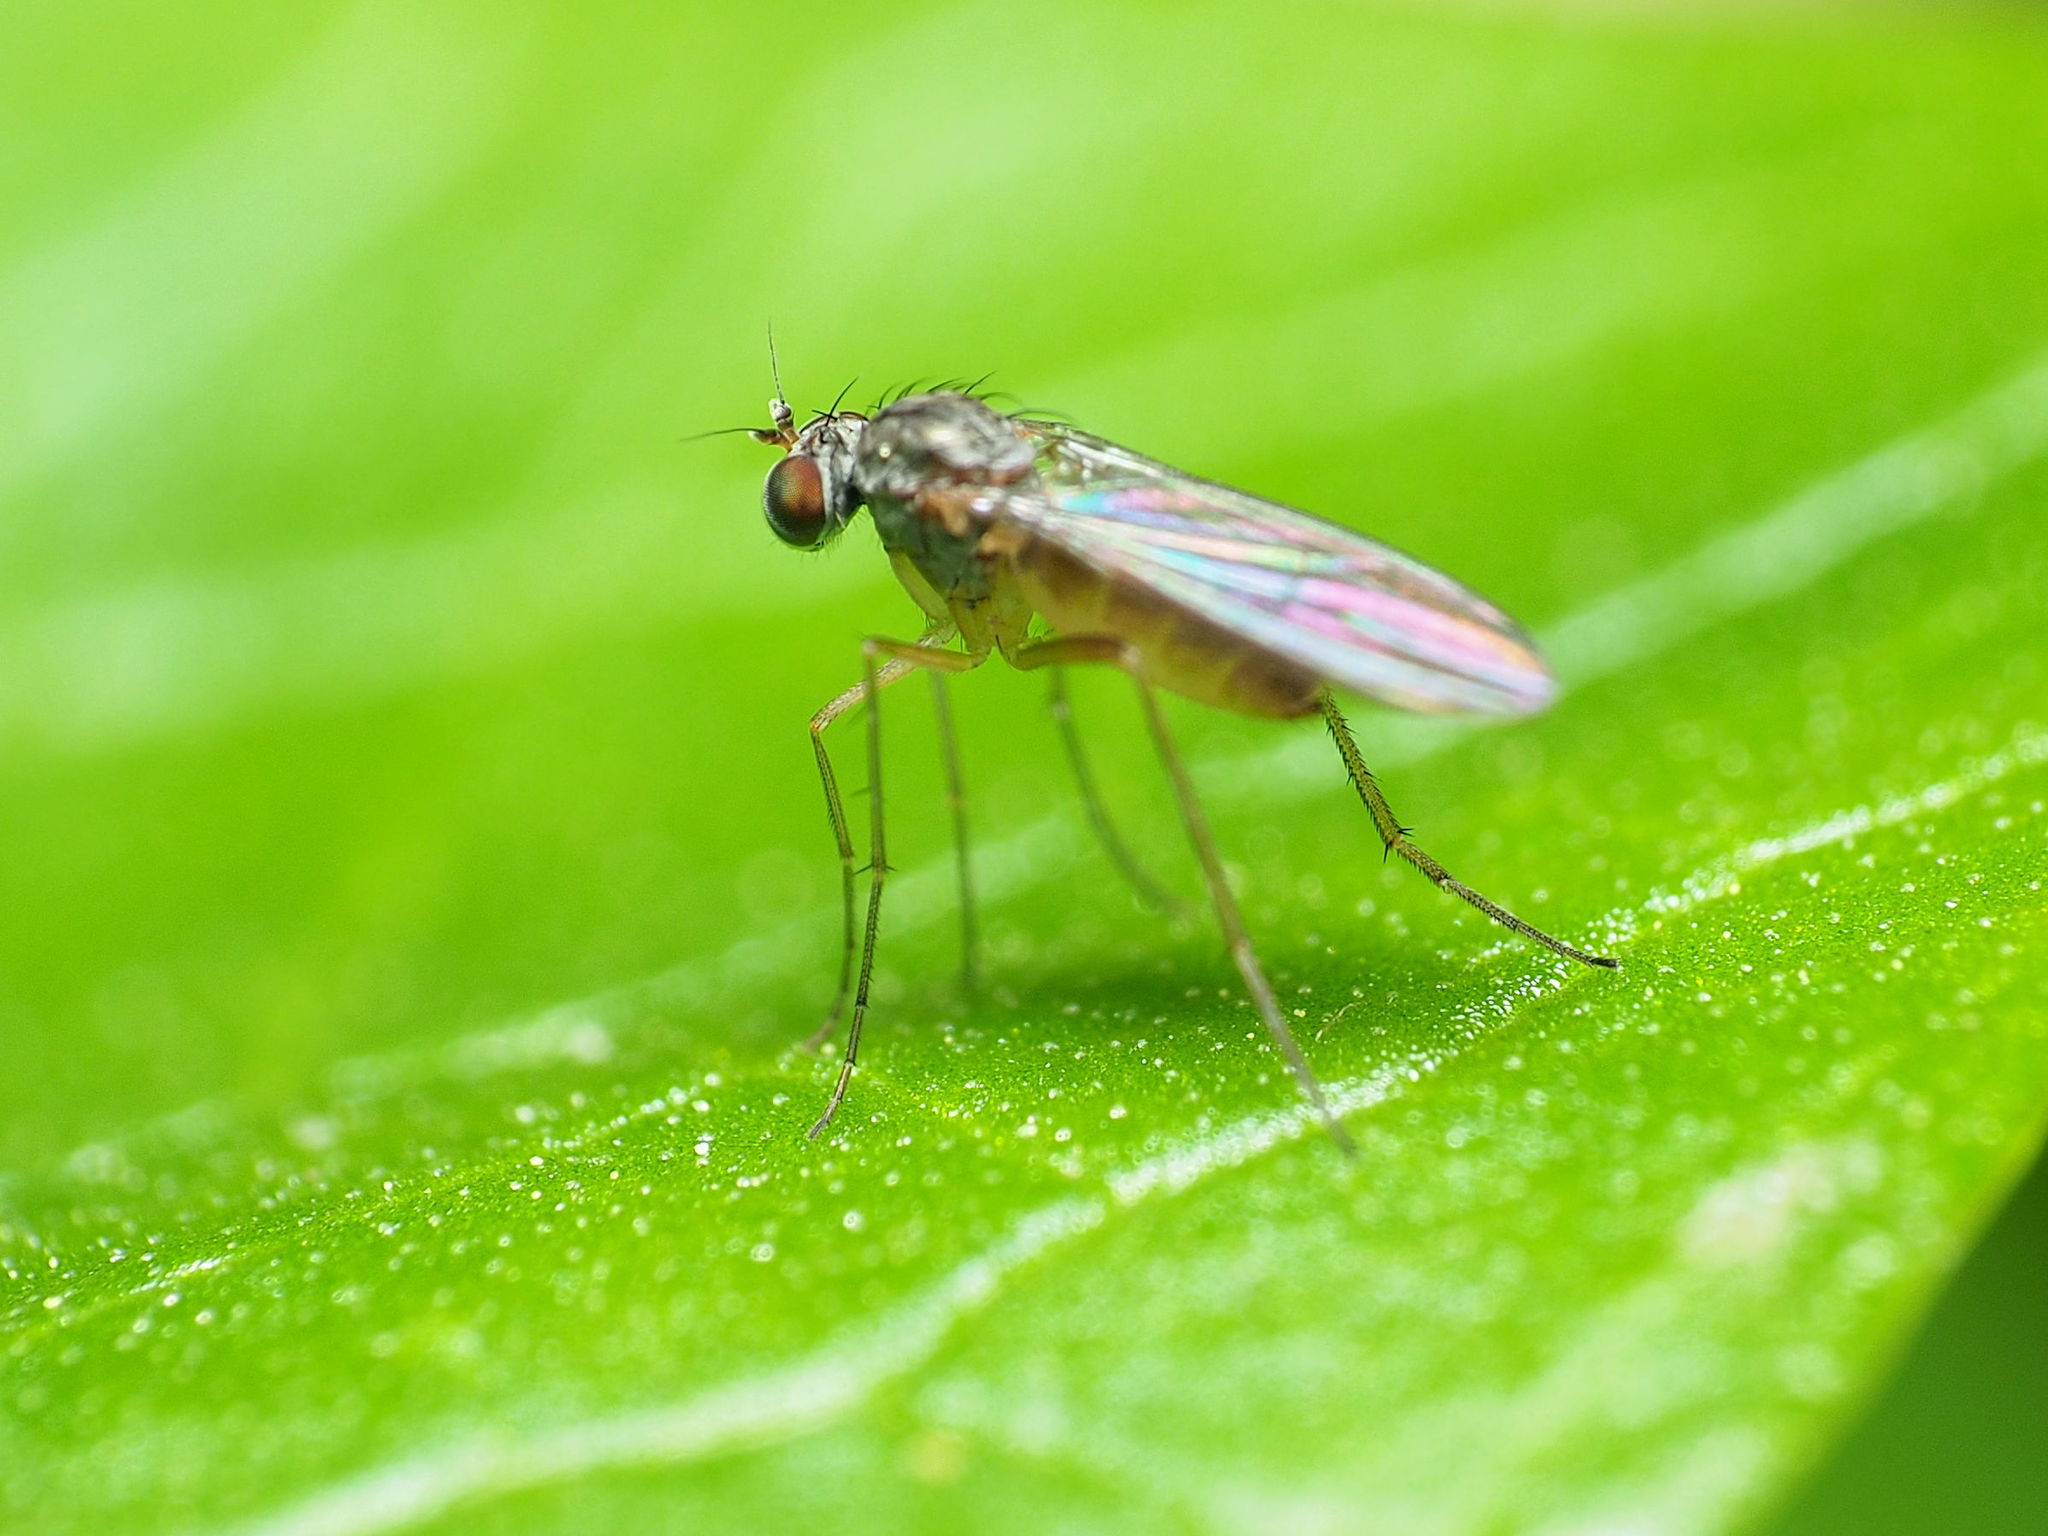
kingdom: Animalia
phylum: Arthropoda
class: Insecta
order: Diptera
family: Dolichopodidae
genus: Sympycnus
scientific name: Sympycnus lineatus
